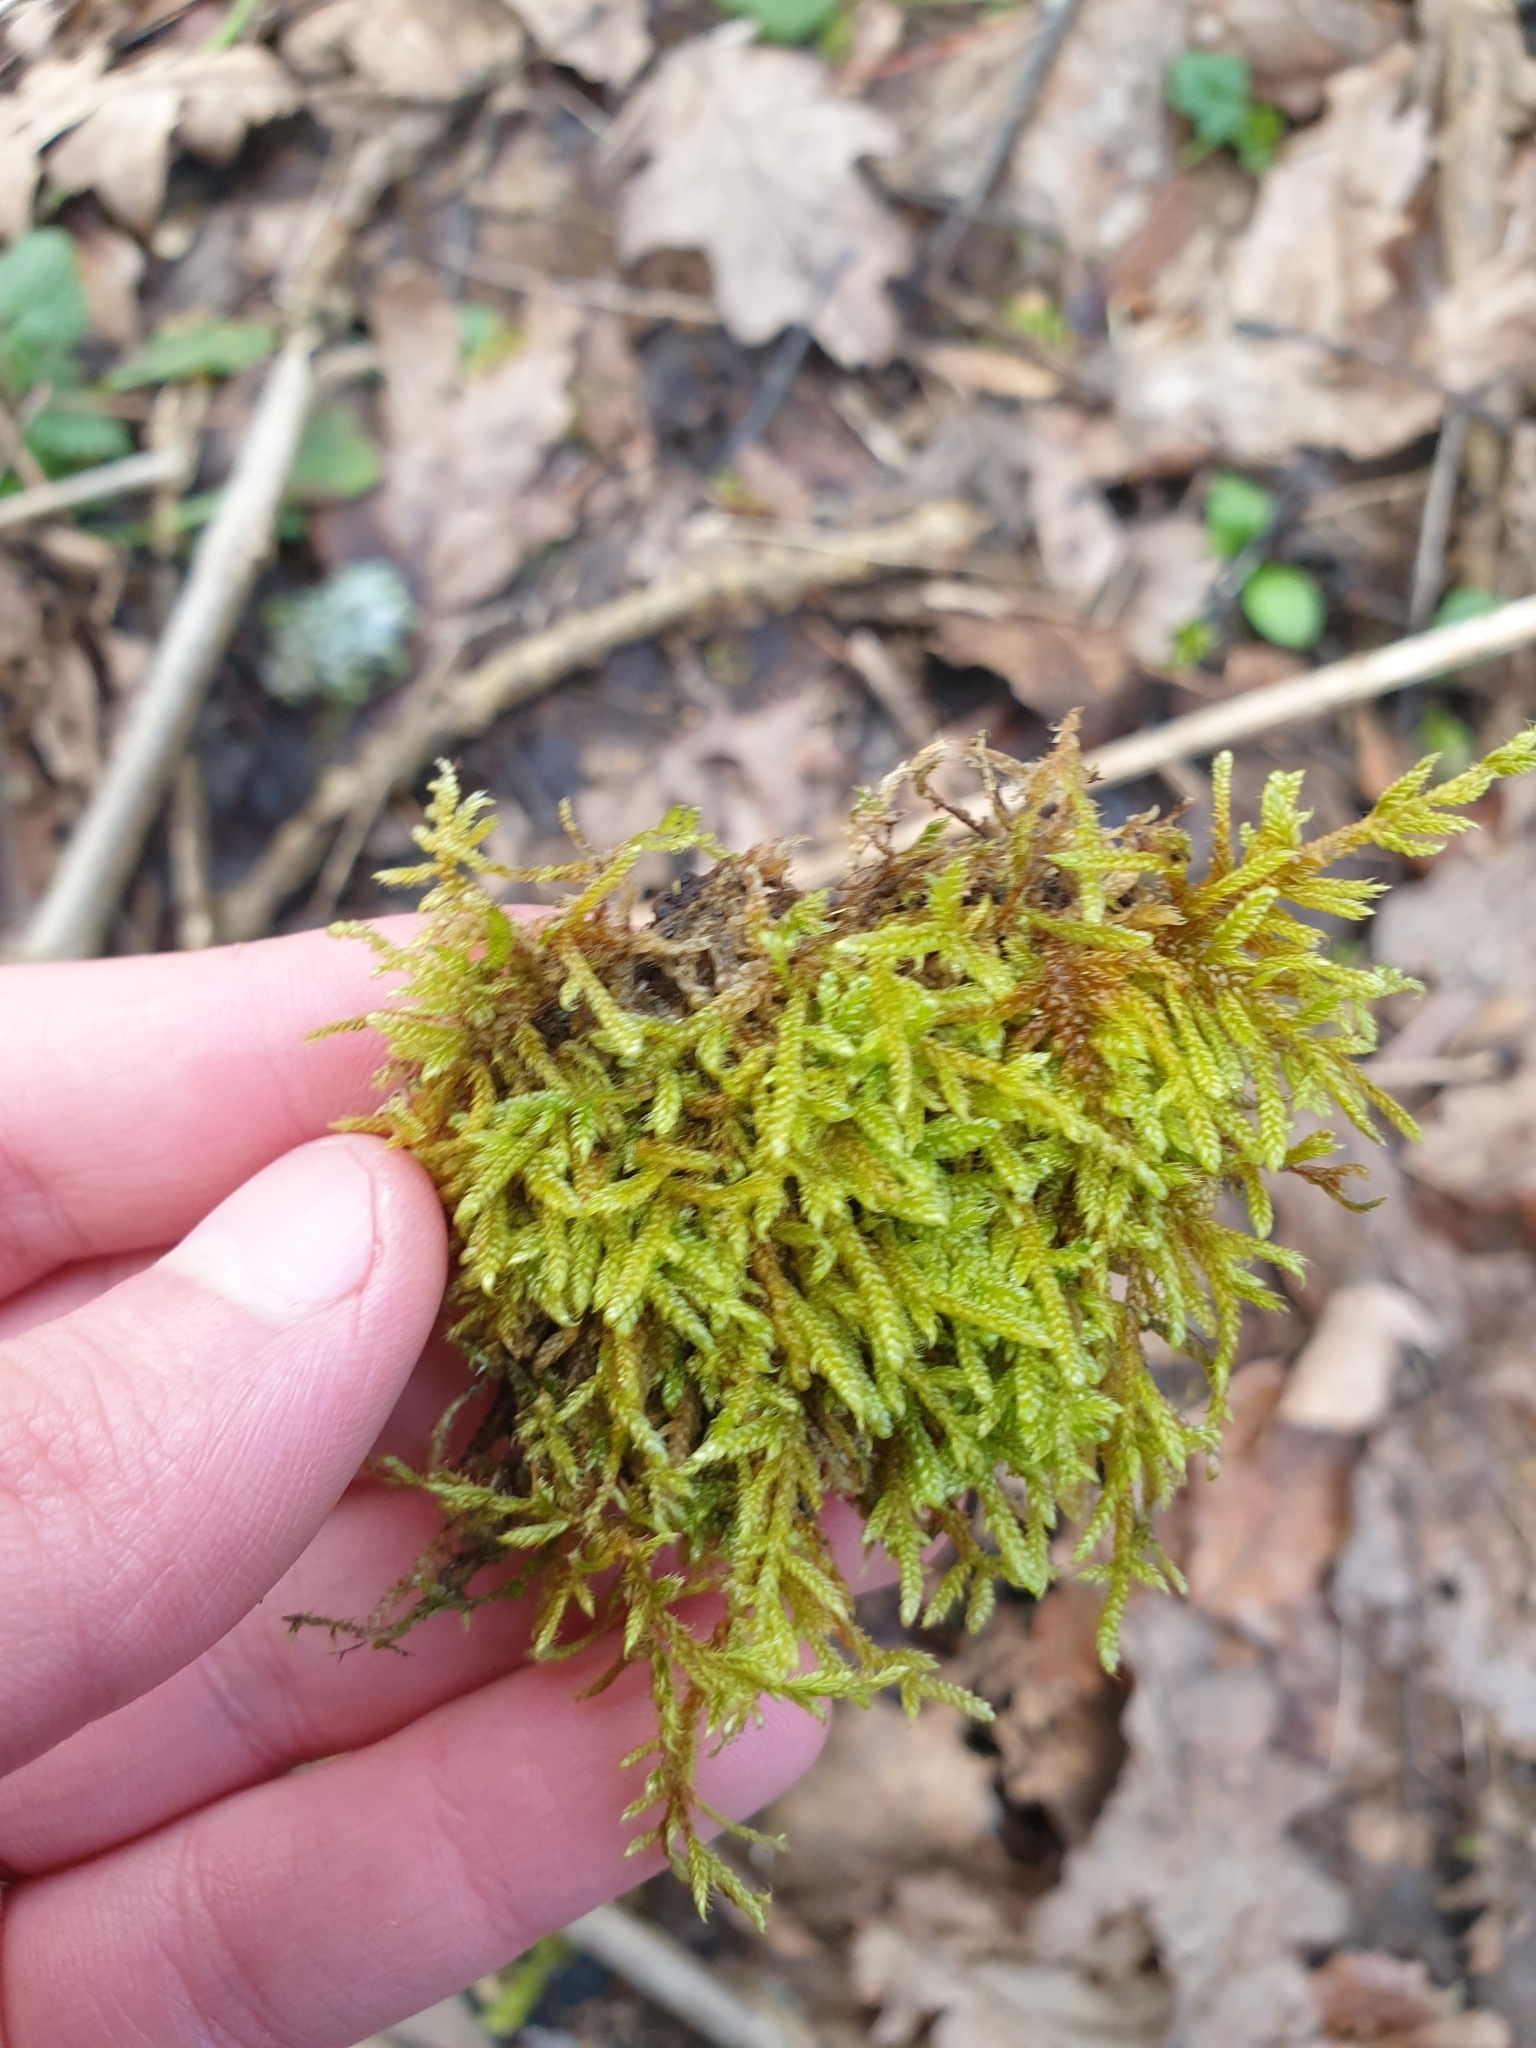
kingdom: Plantae
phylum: Bryophyta
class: Bryopsida
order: Hypnales
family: Hypnaceae
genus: Hypnum
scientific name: Hypnum cupressiforme
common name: Cypress-leaved plait-moss
